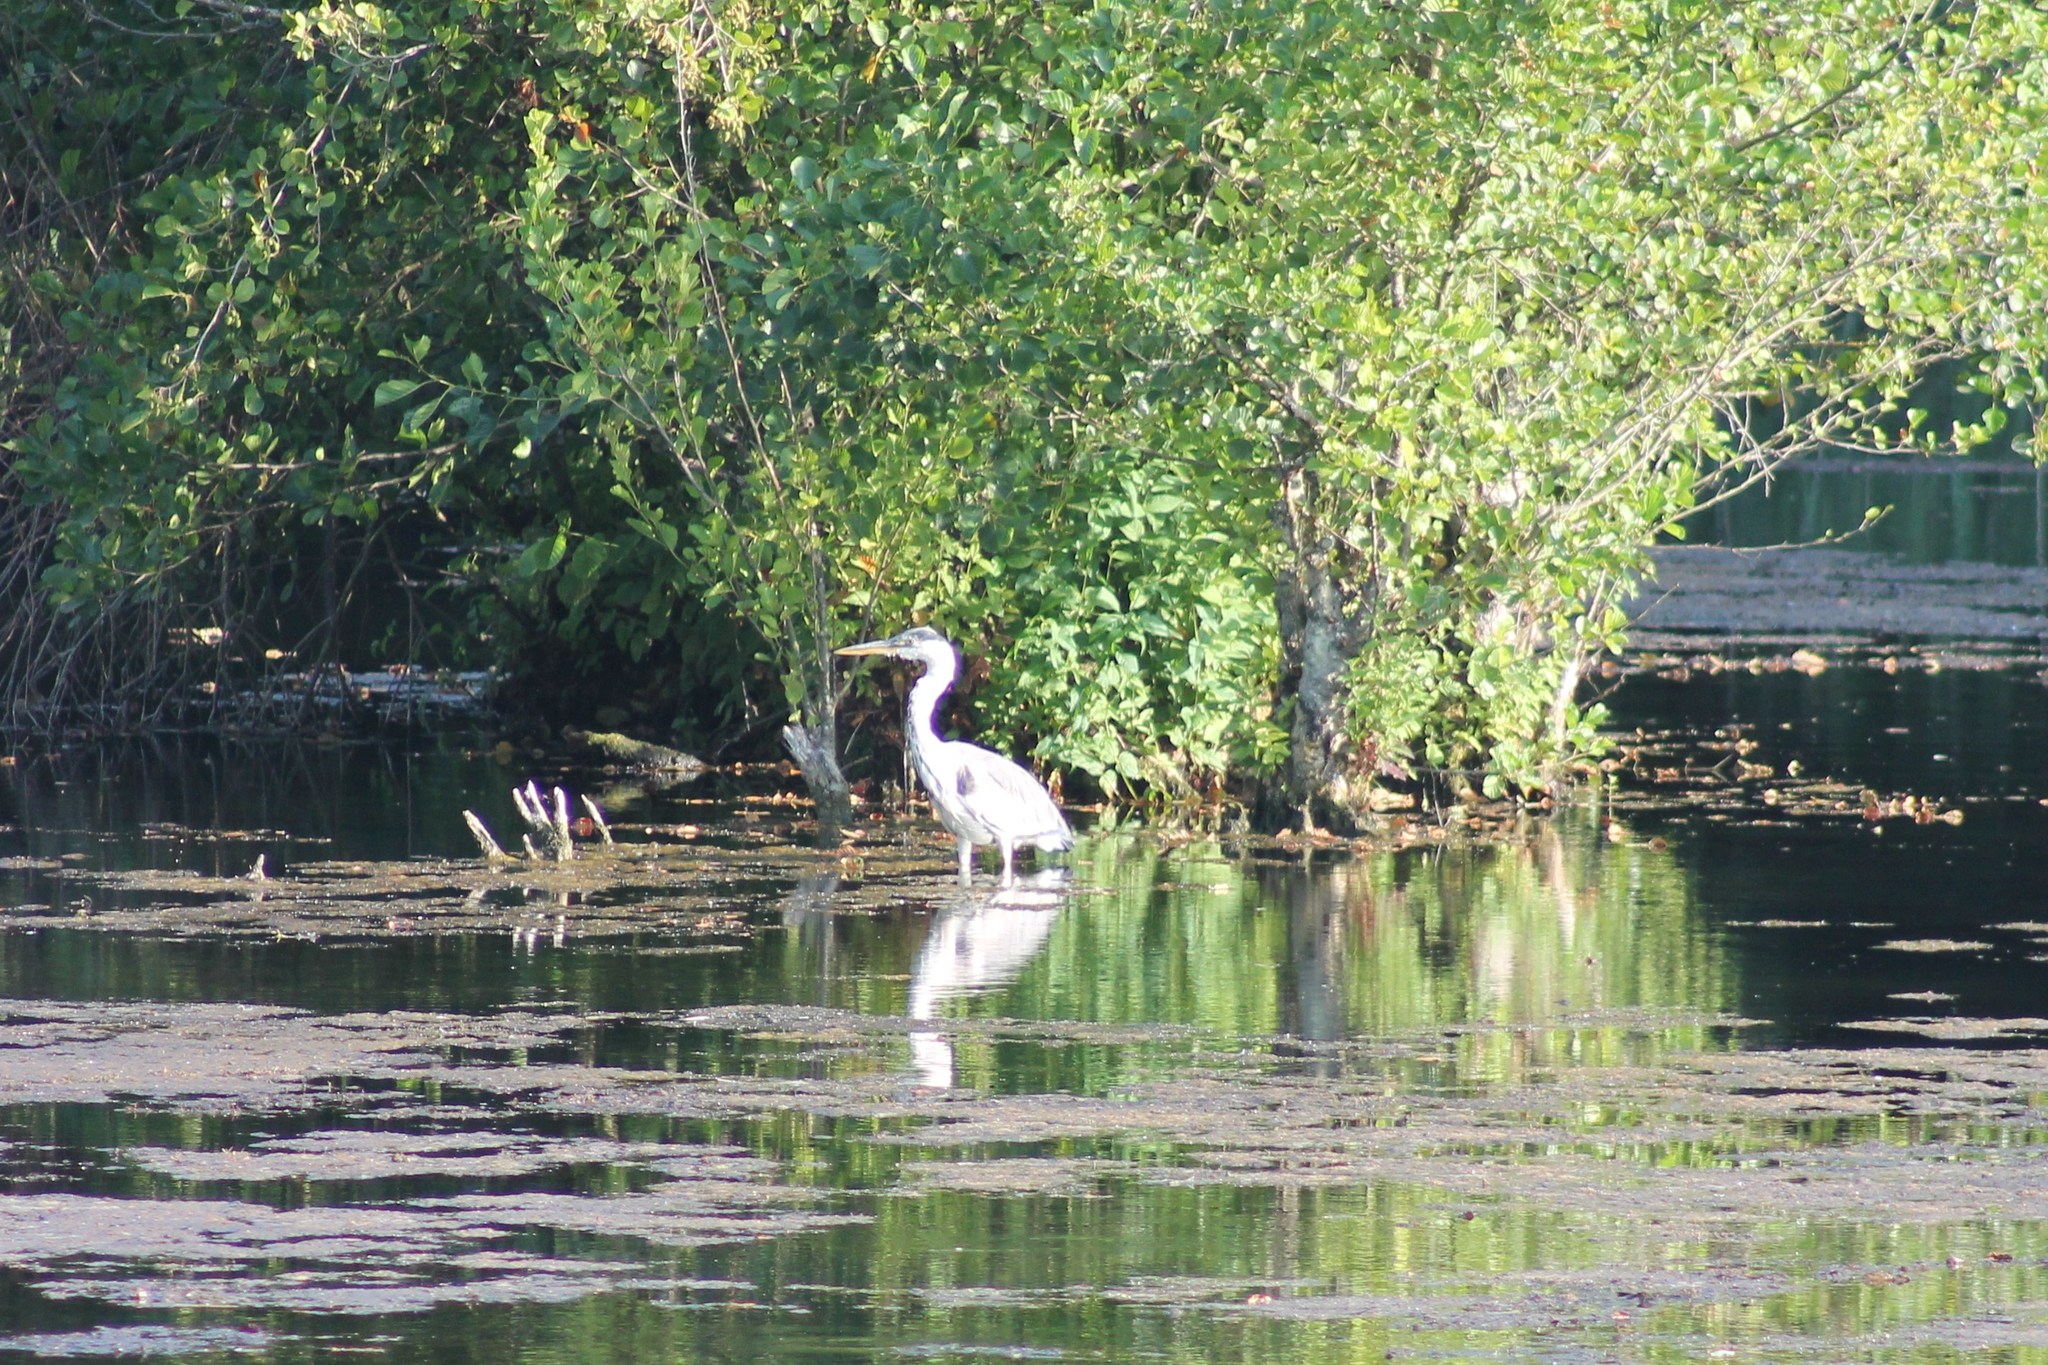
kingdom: Animalia
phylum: Chordata
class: Aves
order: Pelecaniformes
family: Ardeidae
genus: Ardea
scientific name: Ardea cinerea
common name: Grey heron
